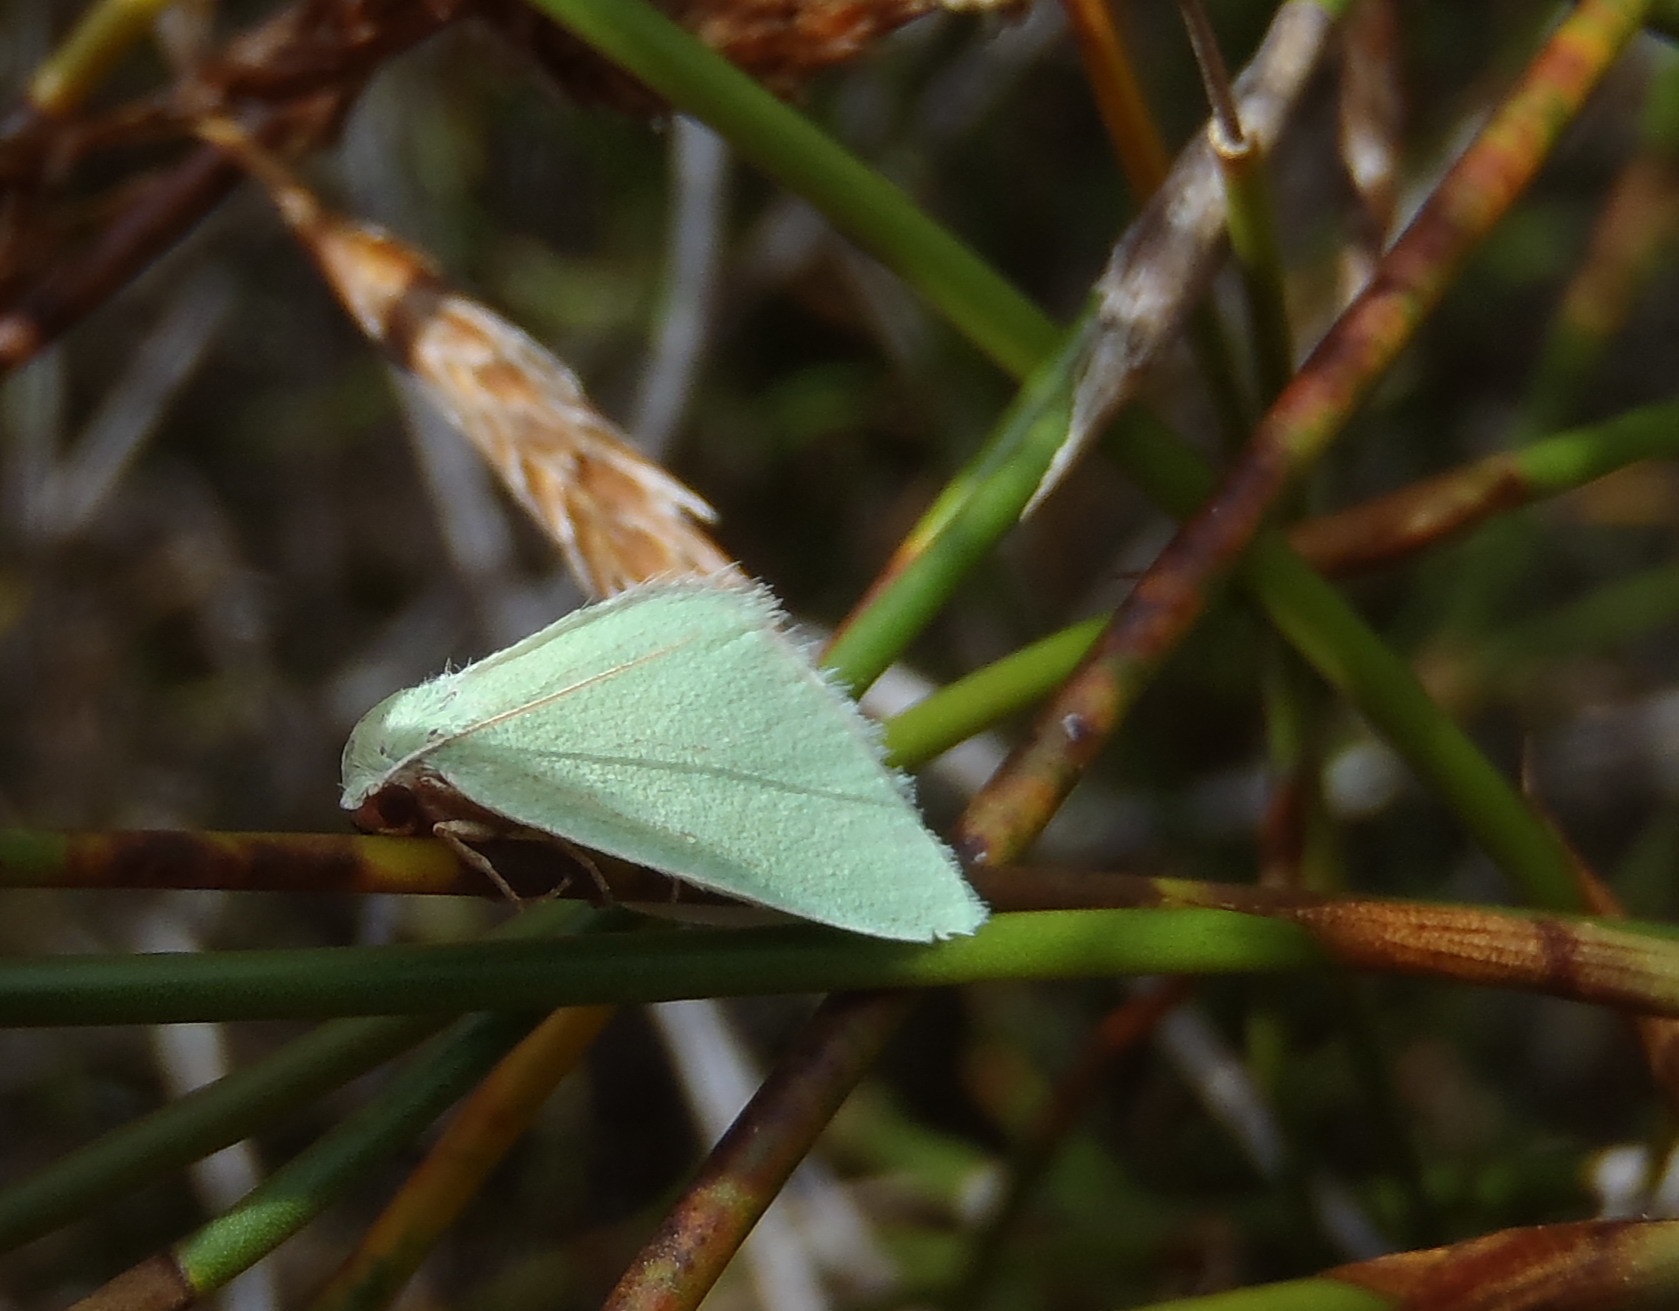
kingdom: Animalia
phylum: Arthropoda
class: Insecta
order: Lepidoptera
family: Geometridae
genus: Rhadinomphax
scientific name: Rhadinomphax divincta
